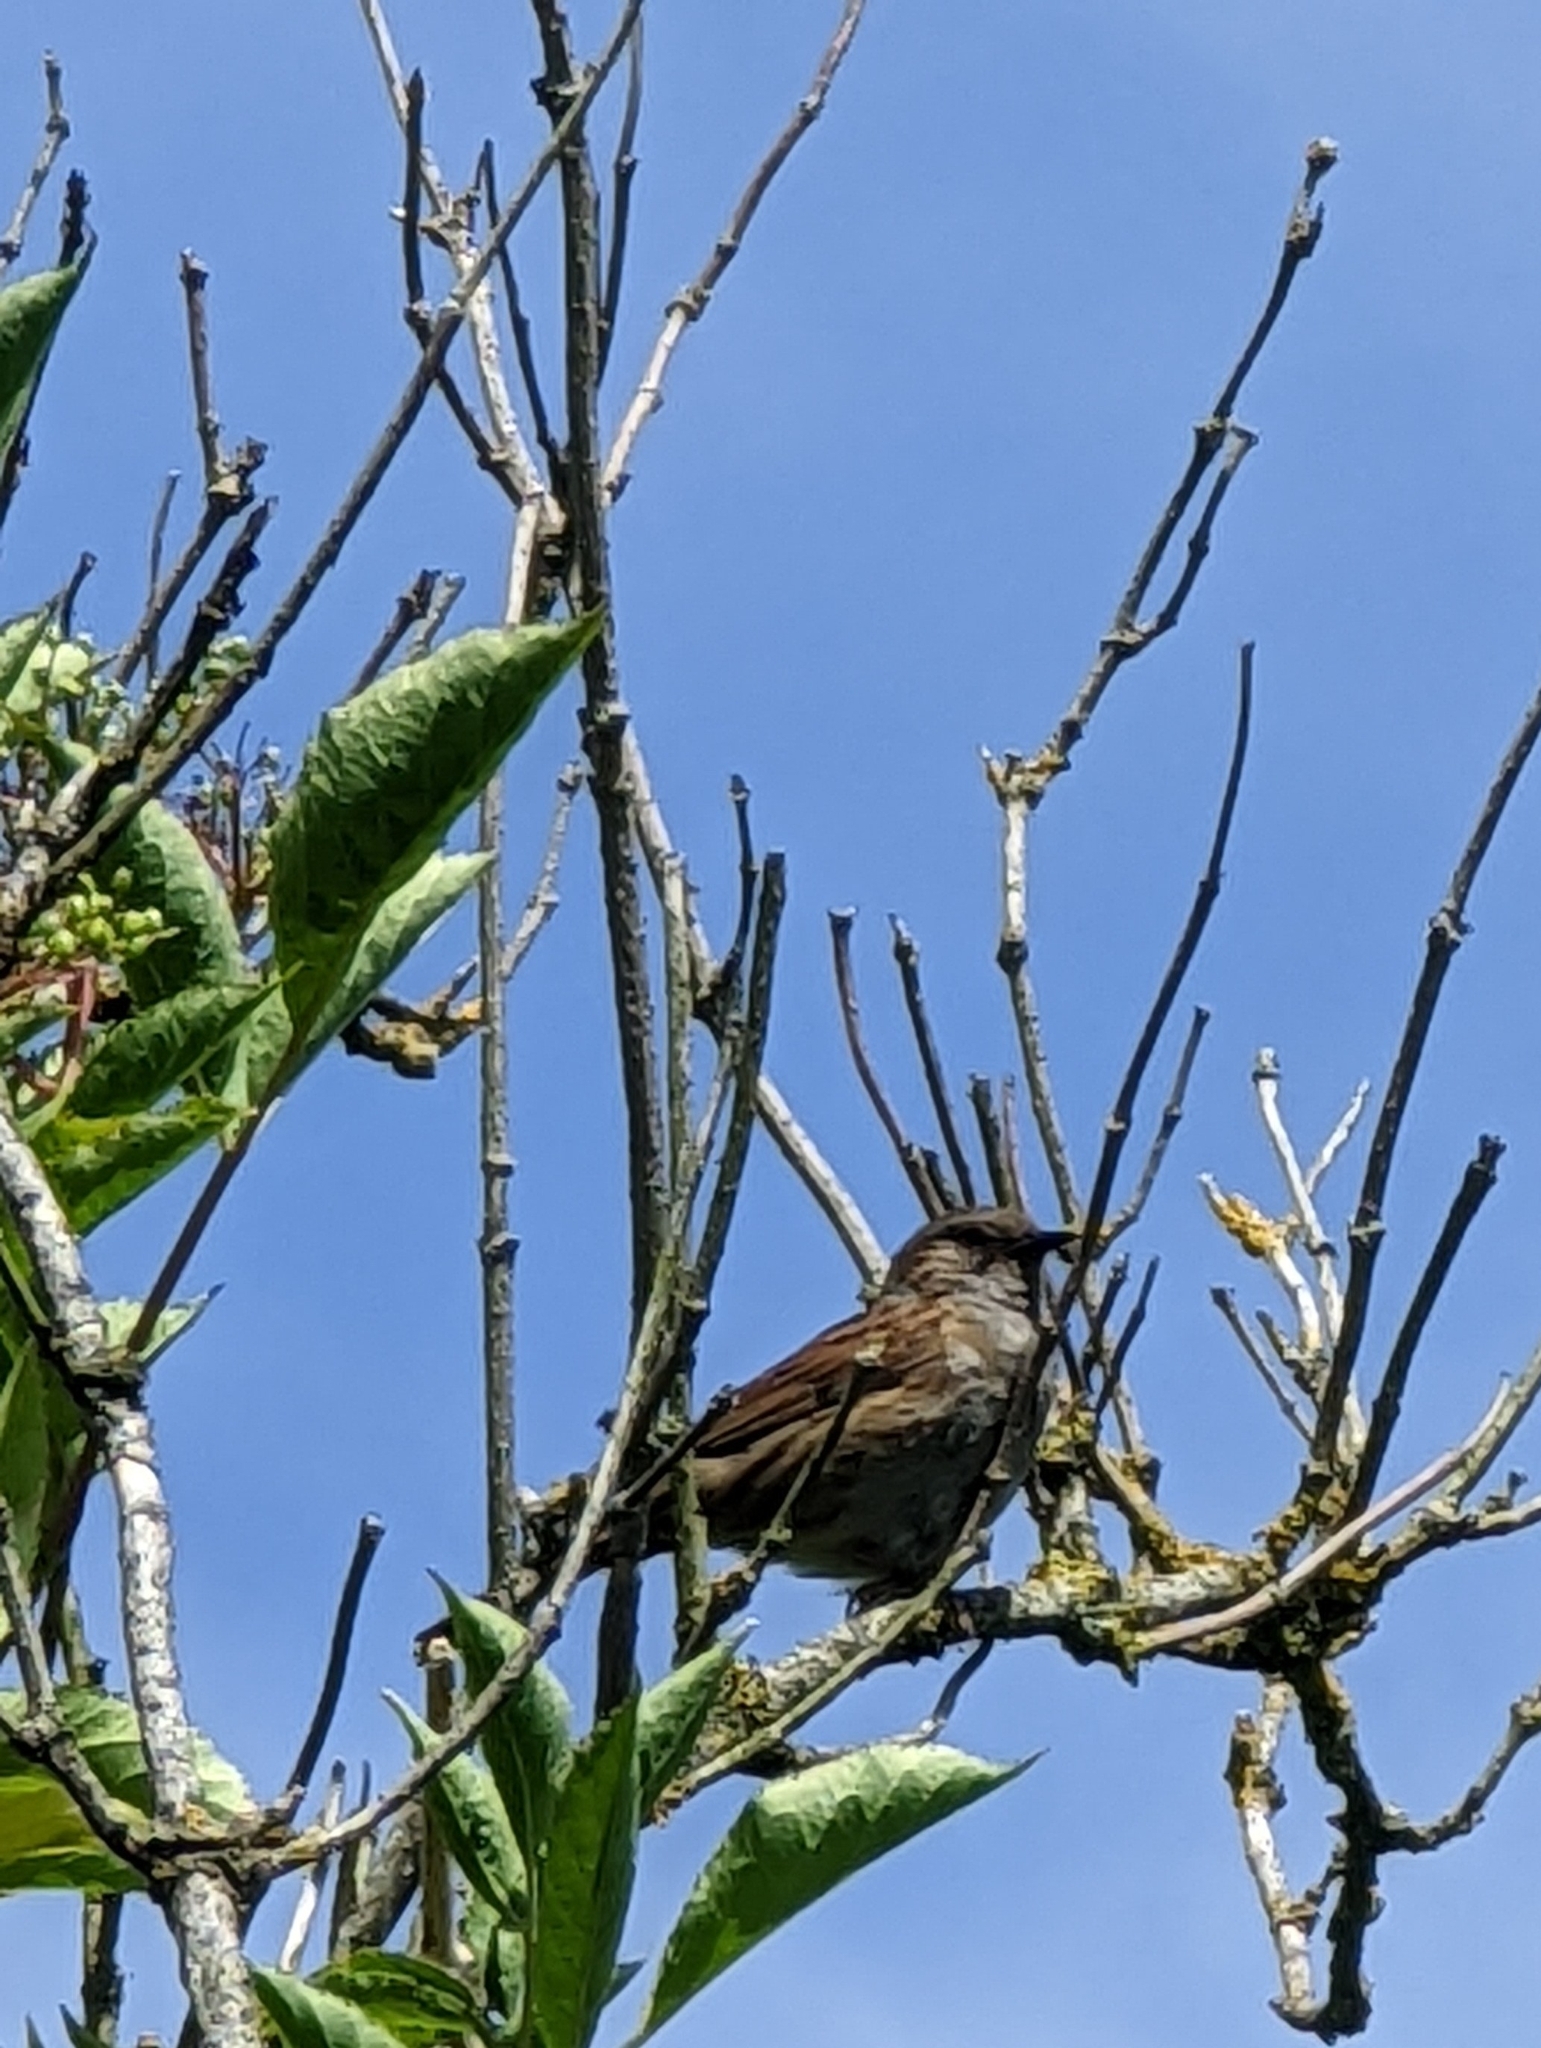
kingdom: Animalia
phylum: Chordata
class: Aves
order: Passeriformes
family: Prunellidae
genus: Prunella
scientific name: Prunella modularis
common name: Dunnock
